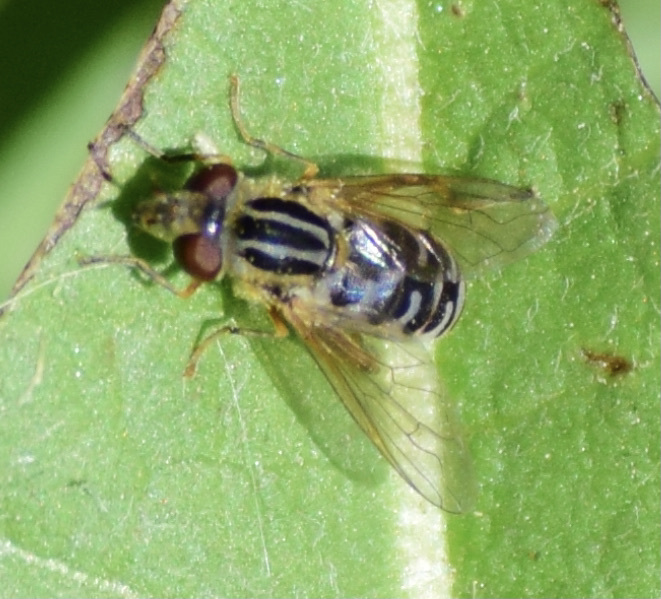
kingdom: Animalia
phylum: Arthropoda
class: Insecta
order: Diptera
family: Syrphidae
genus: Eurimyia
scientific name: Eurimyia stipatus
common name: Long-nosed swamp fly
